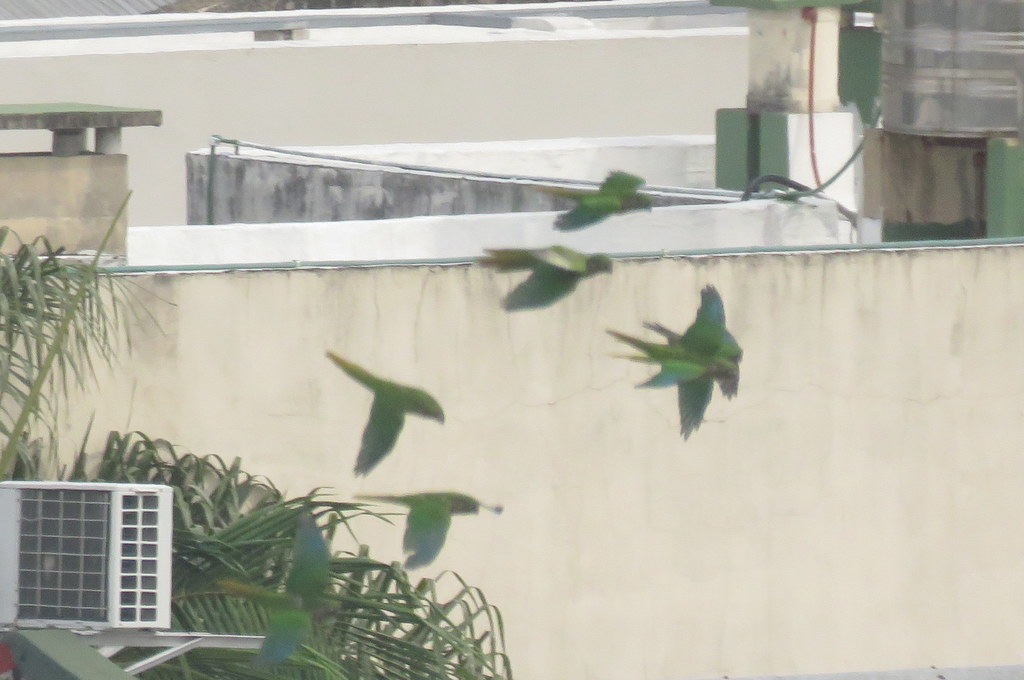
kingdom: Animalia
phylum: Chordata
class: Aves
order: Psittaciformes
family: Psittacidae
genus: Pyrrhura
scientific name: Pyrrhura frontalis
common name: Maroon-bellied parakeet
